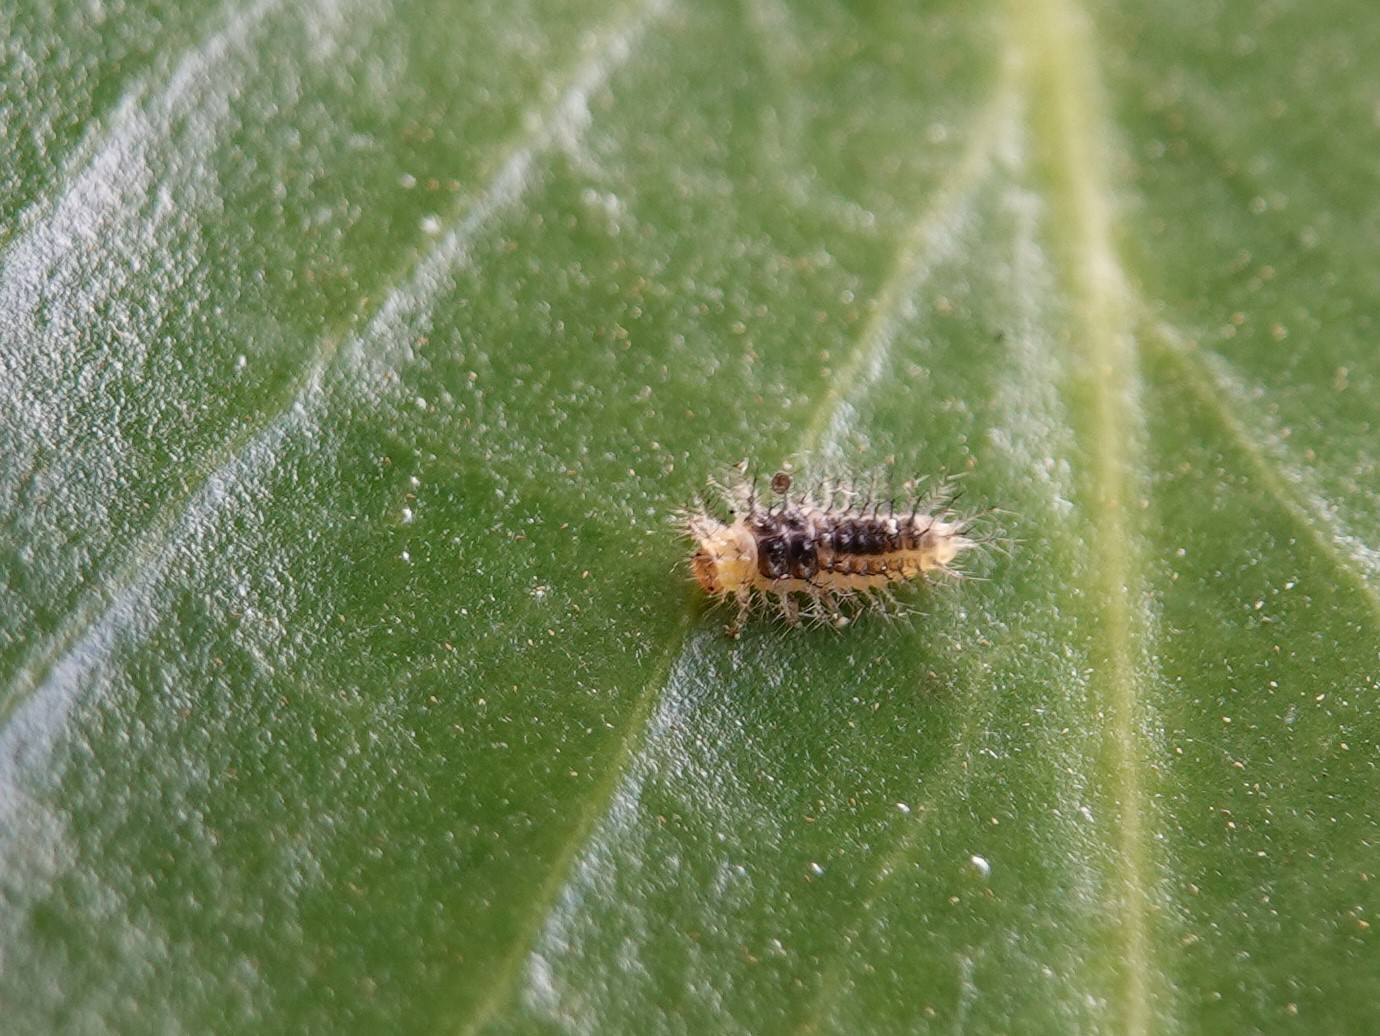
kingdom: Animalia
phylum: Arthropoda
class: Insecta
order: Coleoptera
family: Coccinellidae
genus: Halmus
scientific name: Halmus chalybeus
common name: Steel blue ladybird beetle
